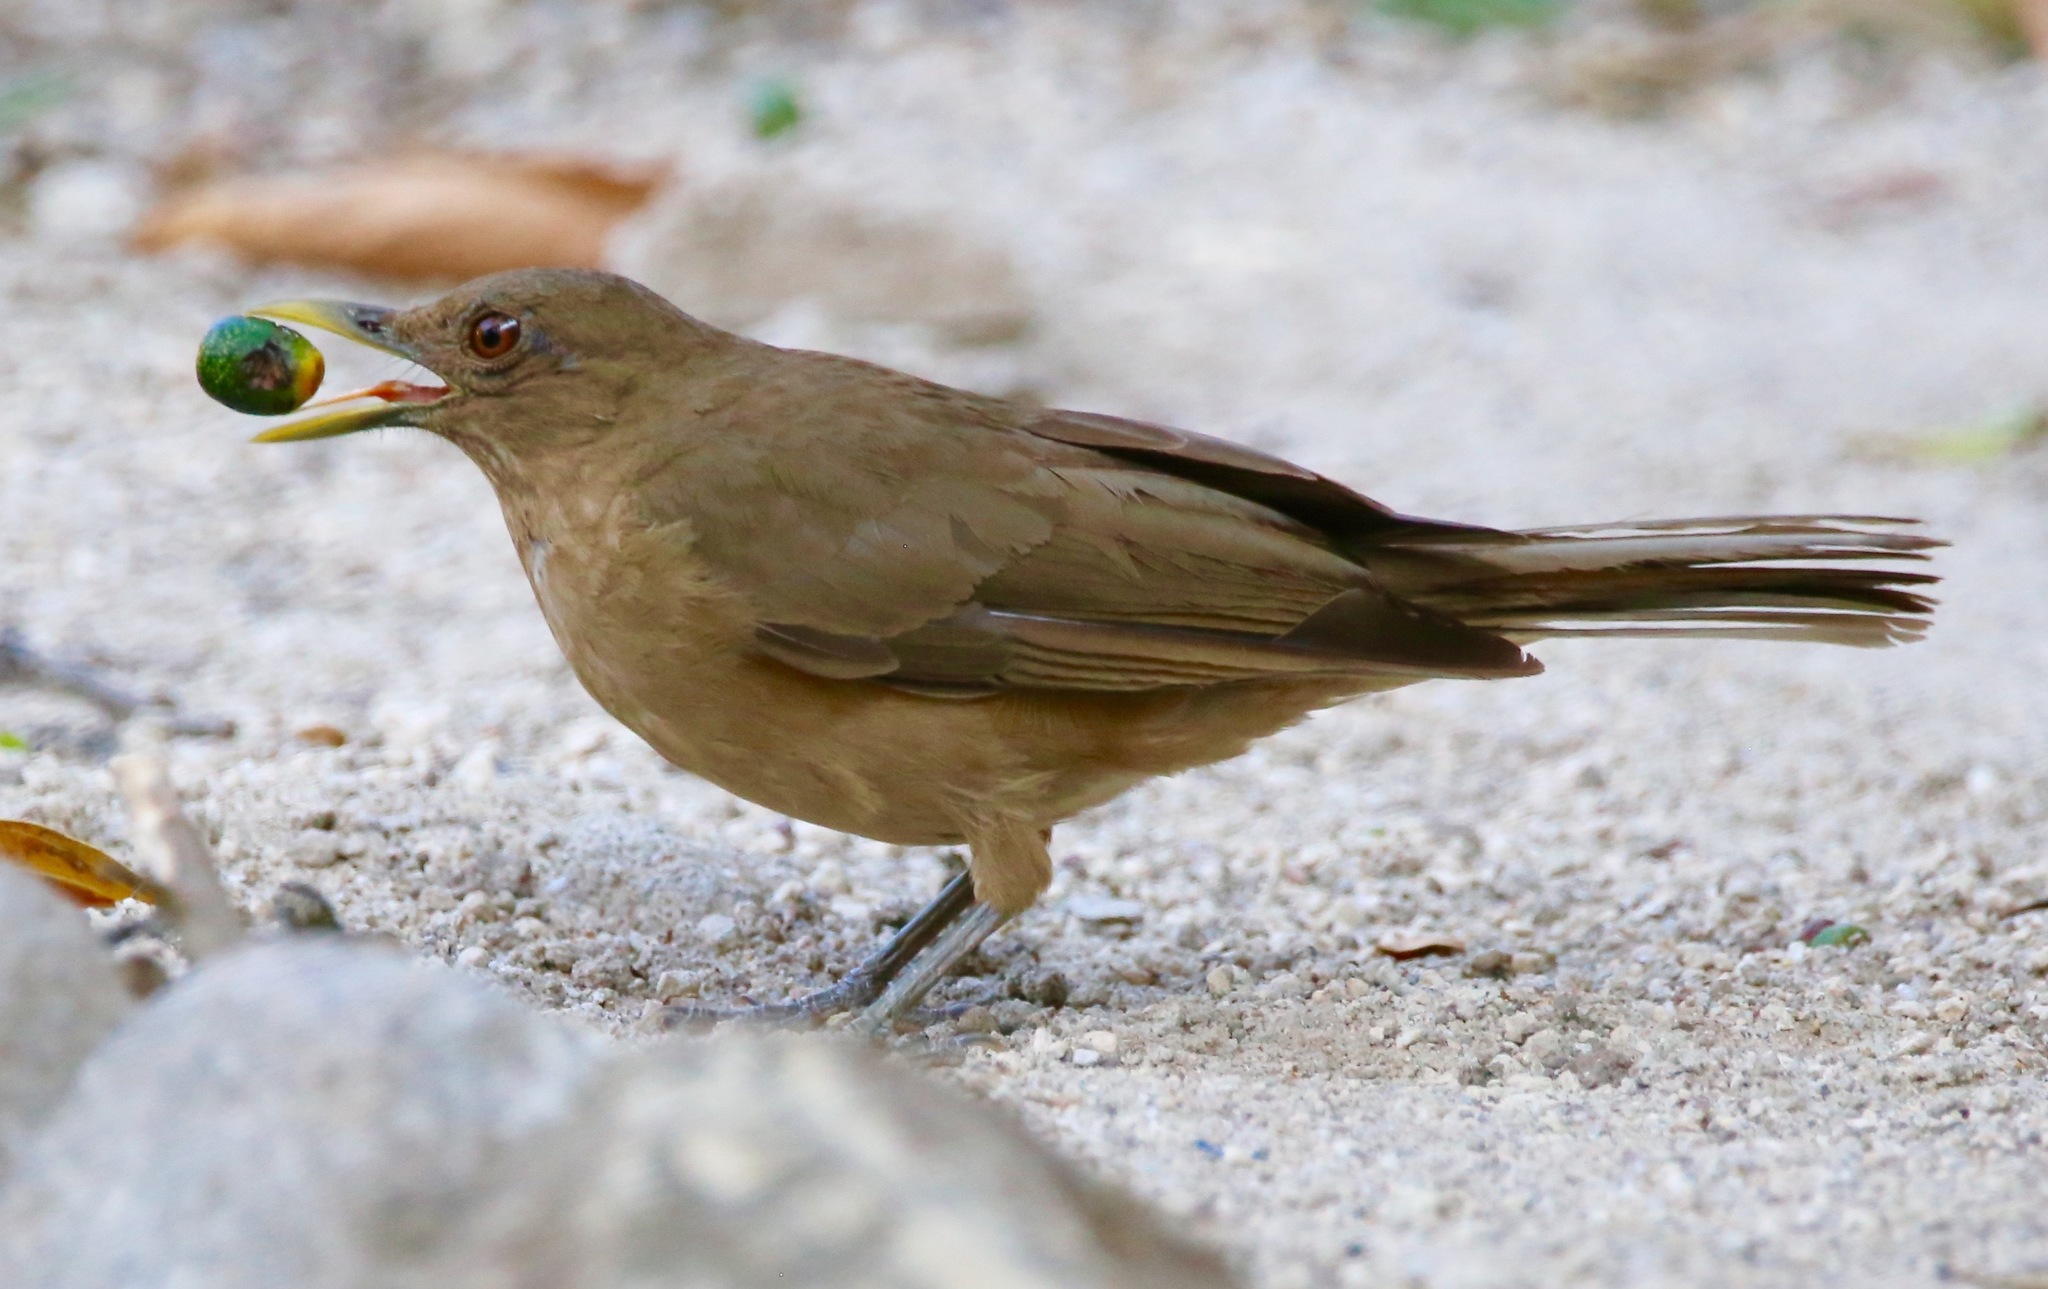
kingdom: Animalia
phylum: Chordata
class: Aves
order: Passeriformes
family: Turdidae
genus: Turdus
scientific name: Turdus grayi
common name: Clay-colored thrush
